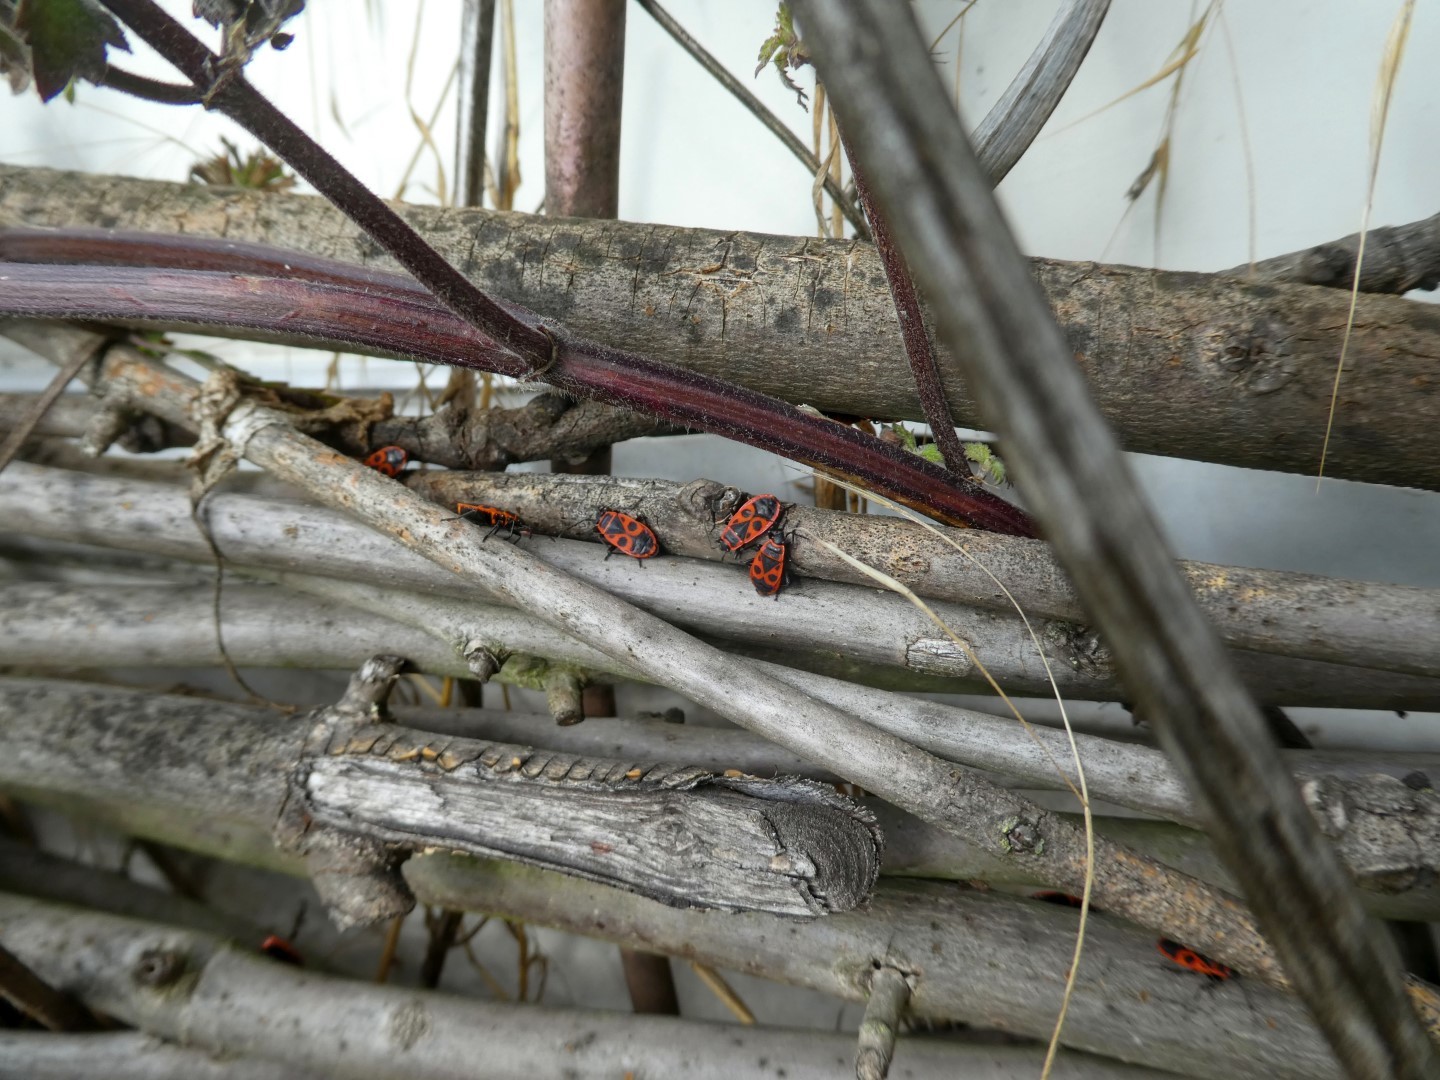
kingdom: Animalia
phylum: Arthropoda
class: Insecta
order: Hemiptera
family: Pyrrhocoridae
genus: Pyrrhocoris
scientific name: Pyrrhocoris apterus
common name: Firebug
